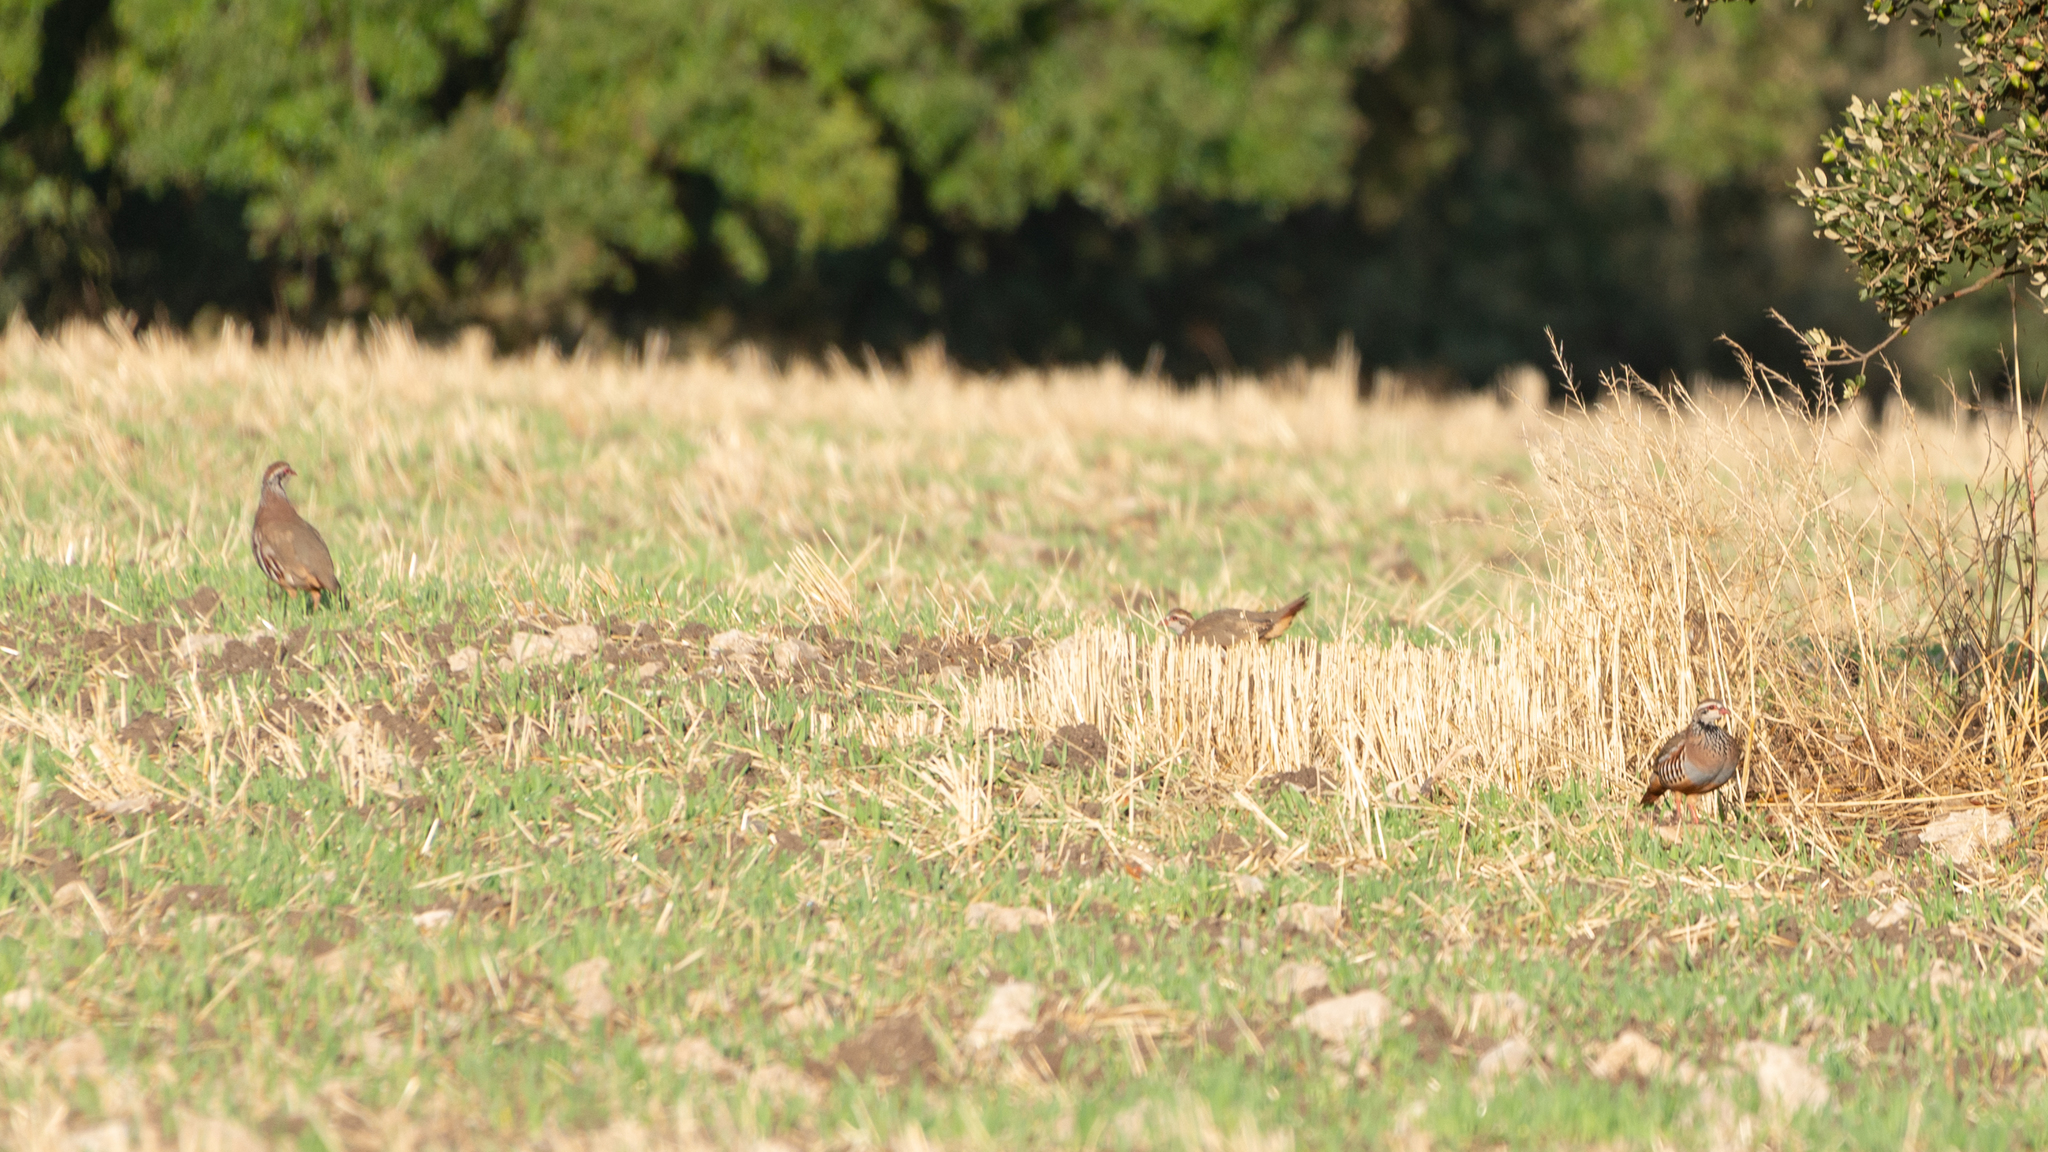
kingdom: Animalia
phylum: Chordata
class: Aves
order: Galliformes
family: Phasianidae
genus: Alectoris
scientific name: Alectoris rufa
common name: Red-legged partridge
